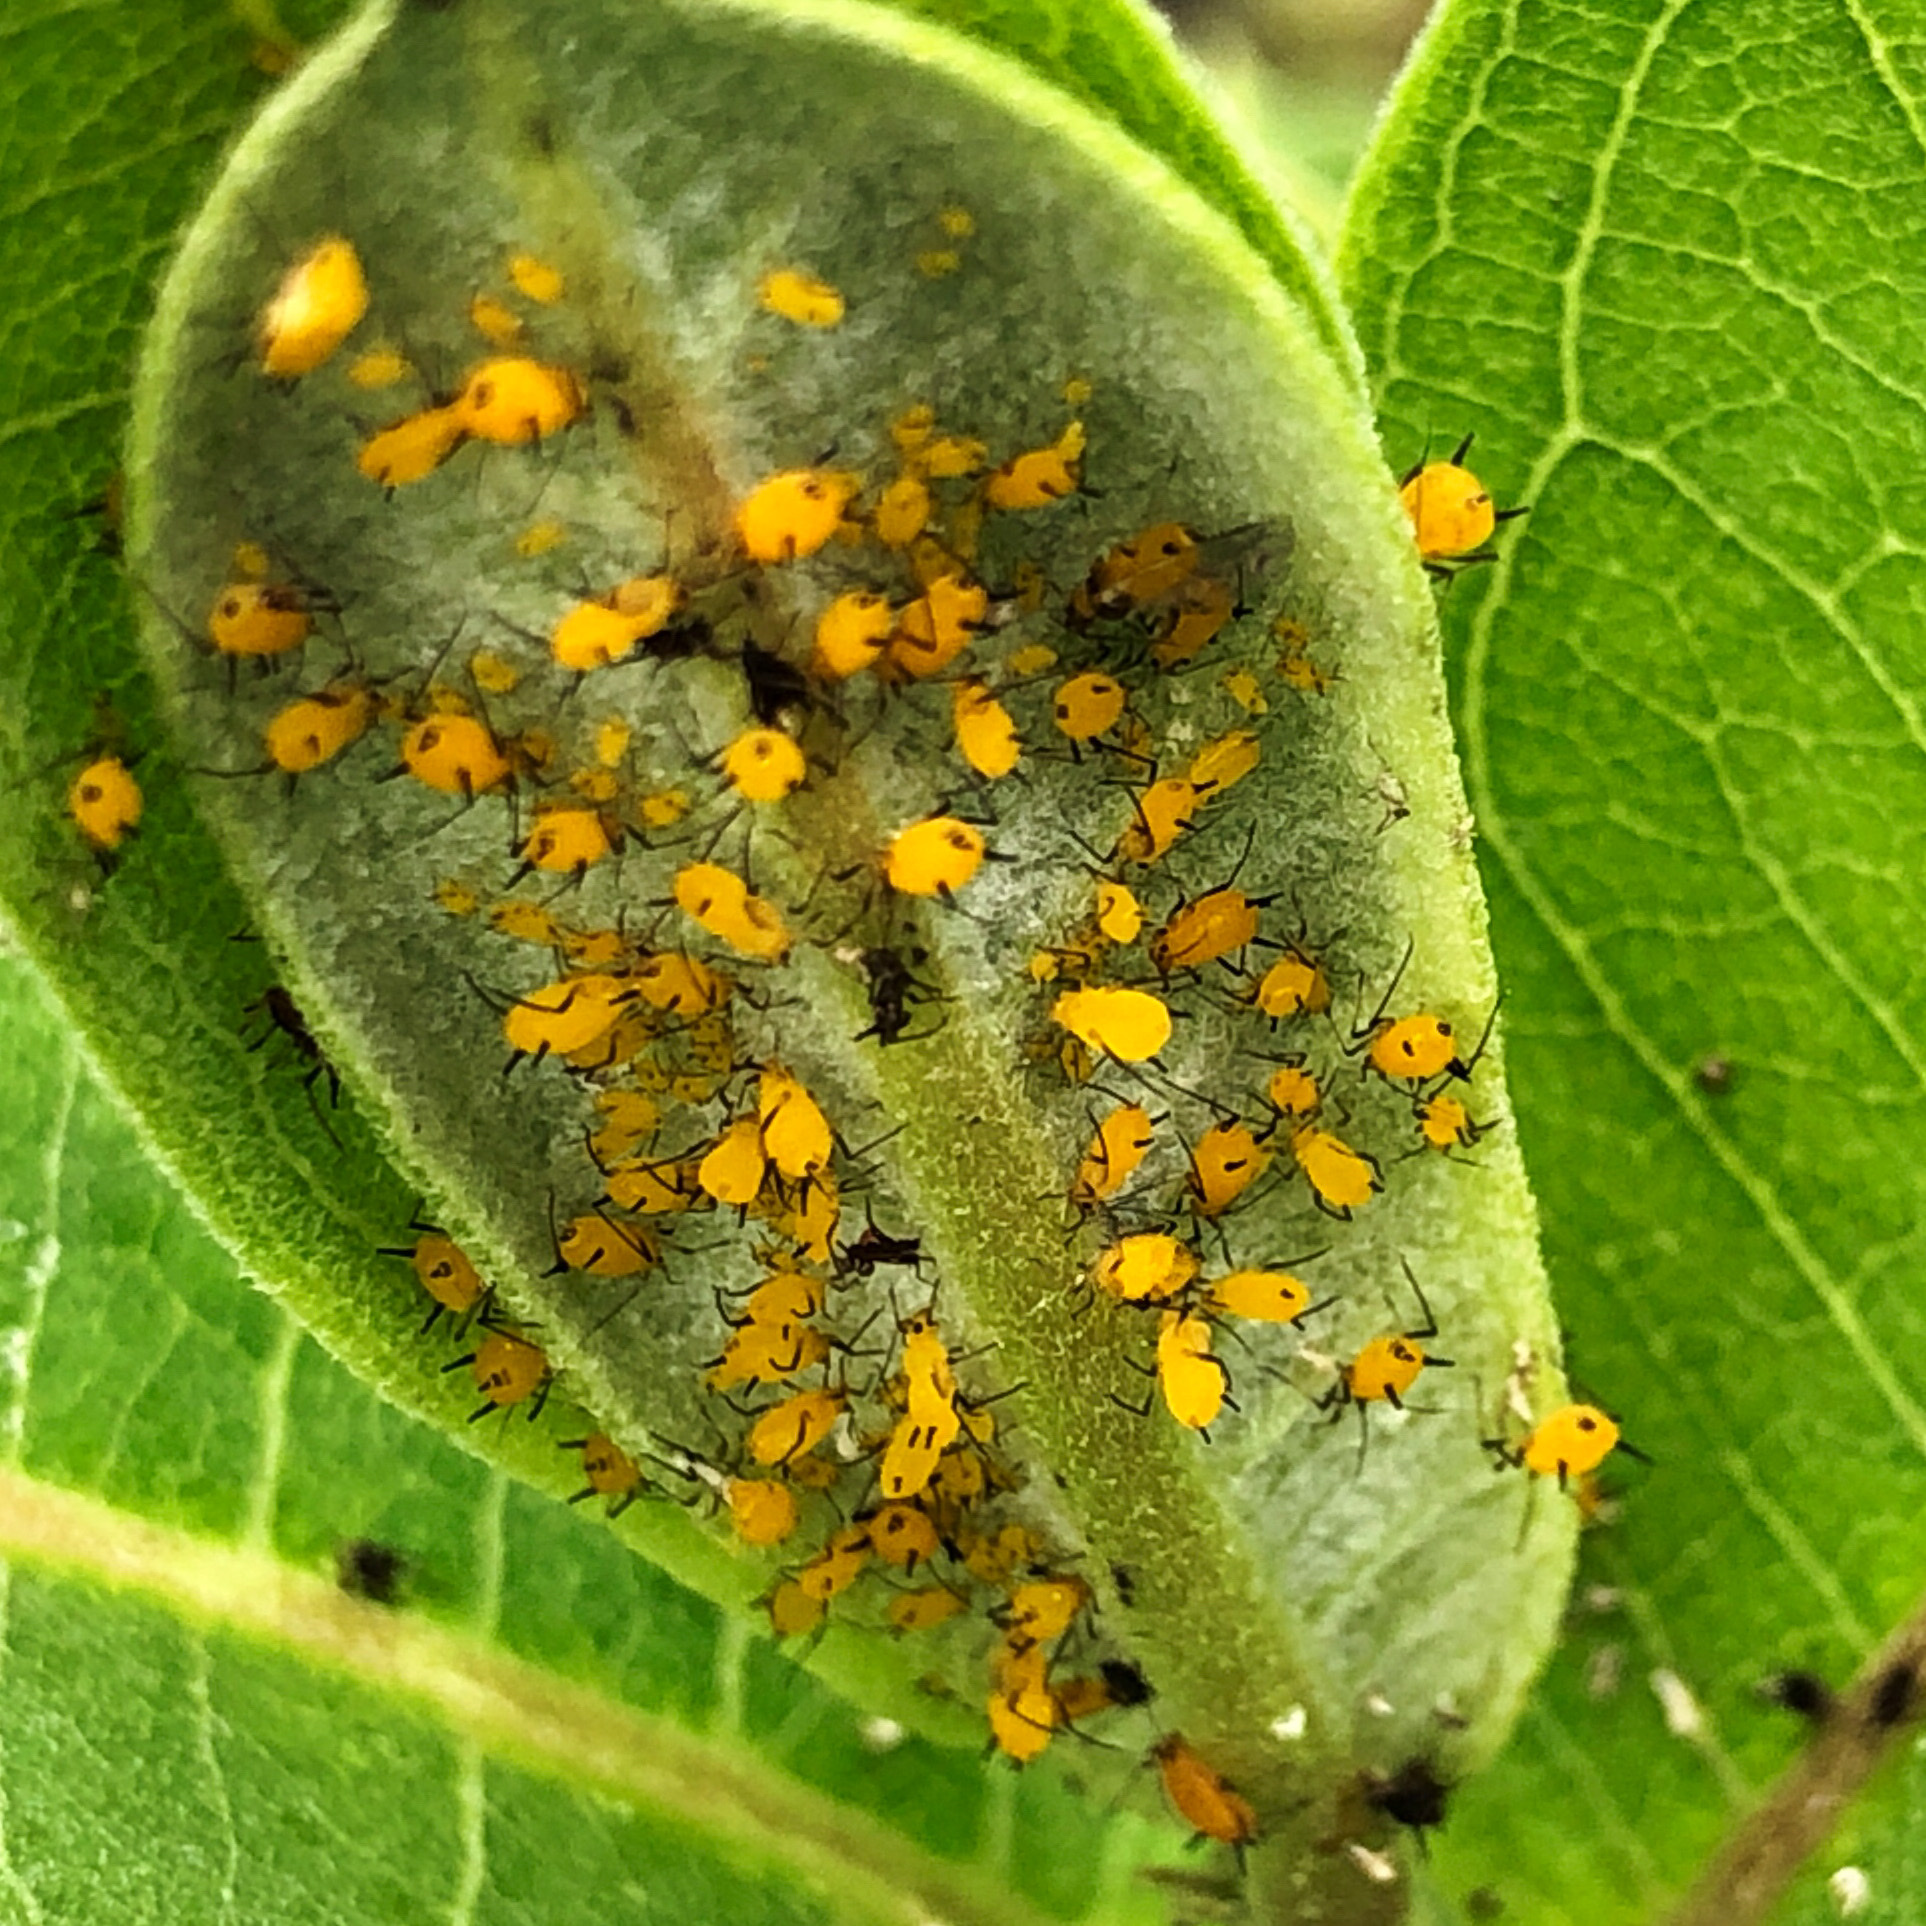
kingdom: Animalia
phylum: Arthropoda
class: Insecta
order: Hemiptera
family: Aphididae
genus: Aphis
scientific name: Aphis nerii
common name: Oleander aphid
